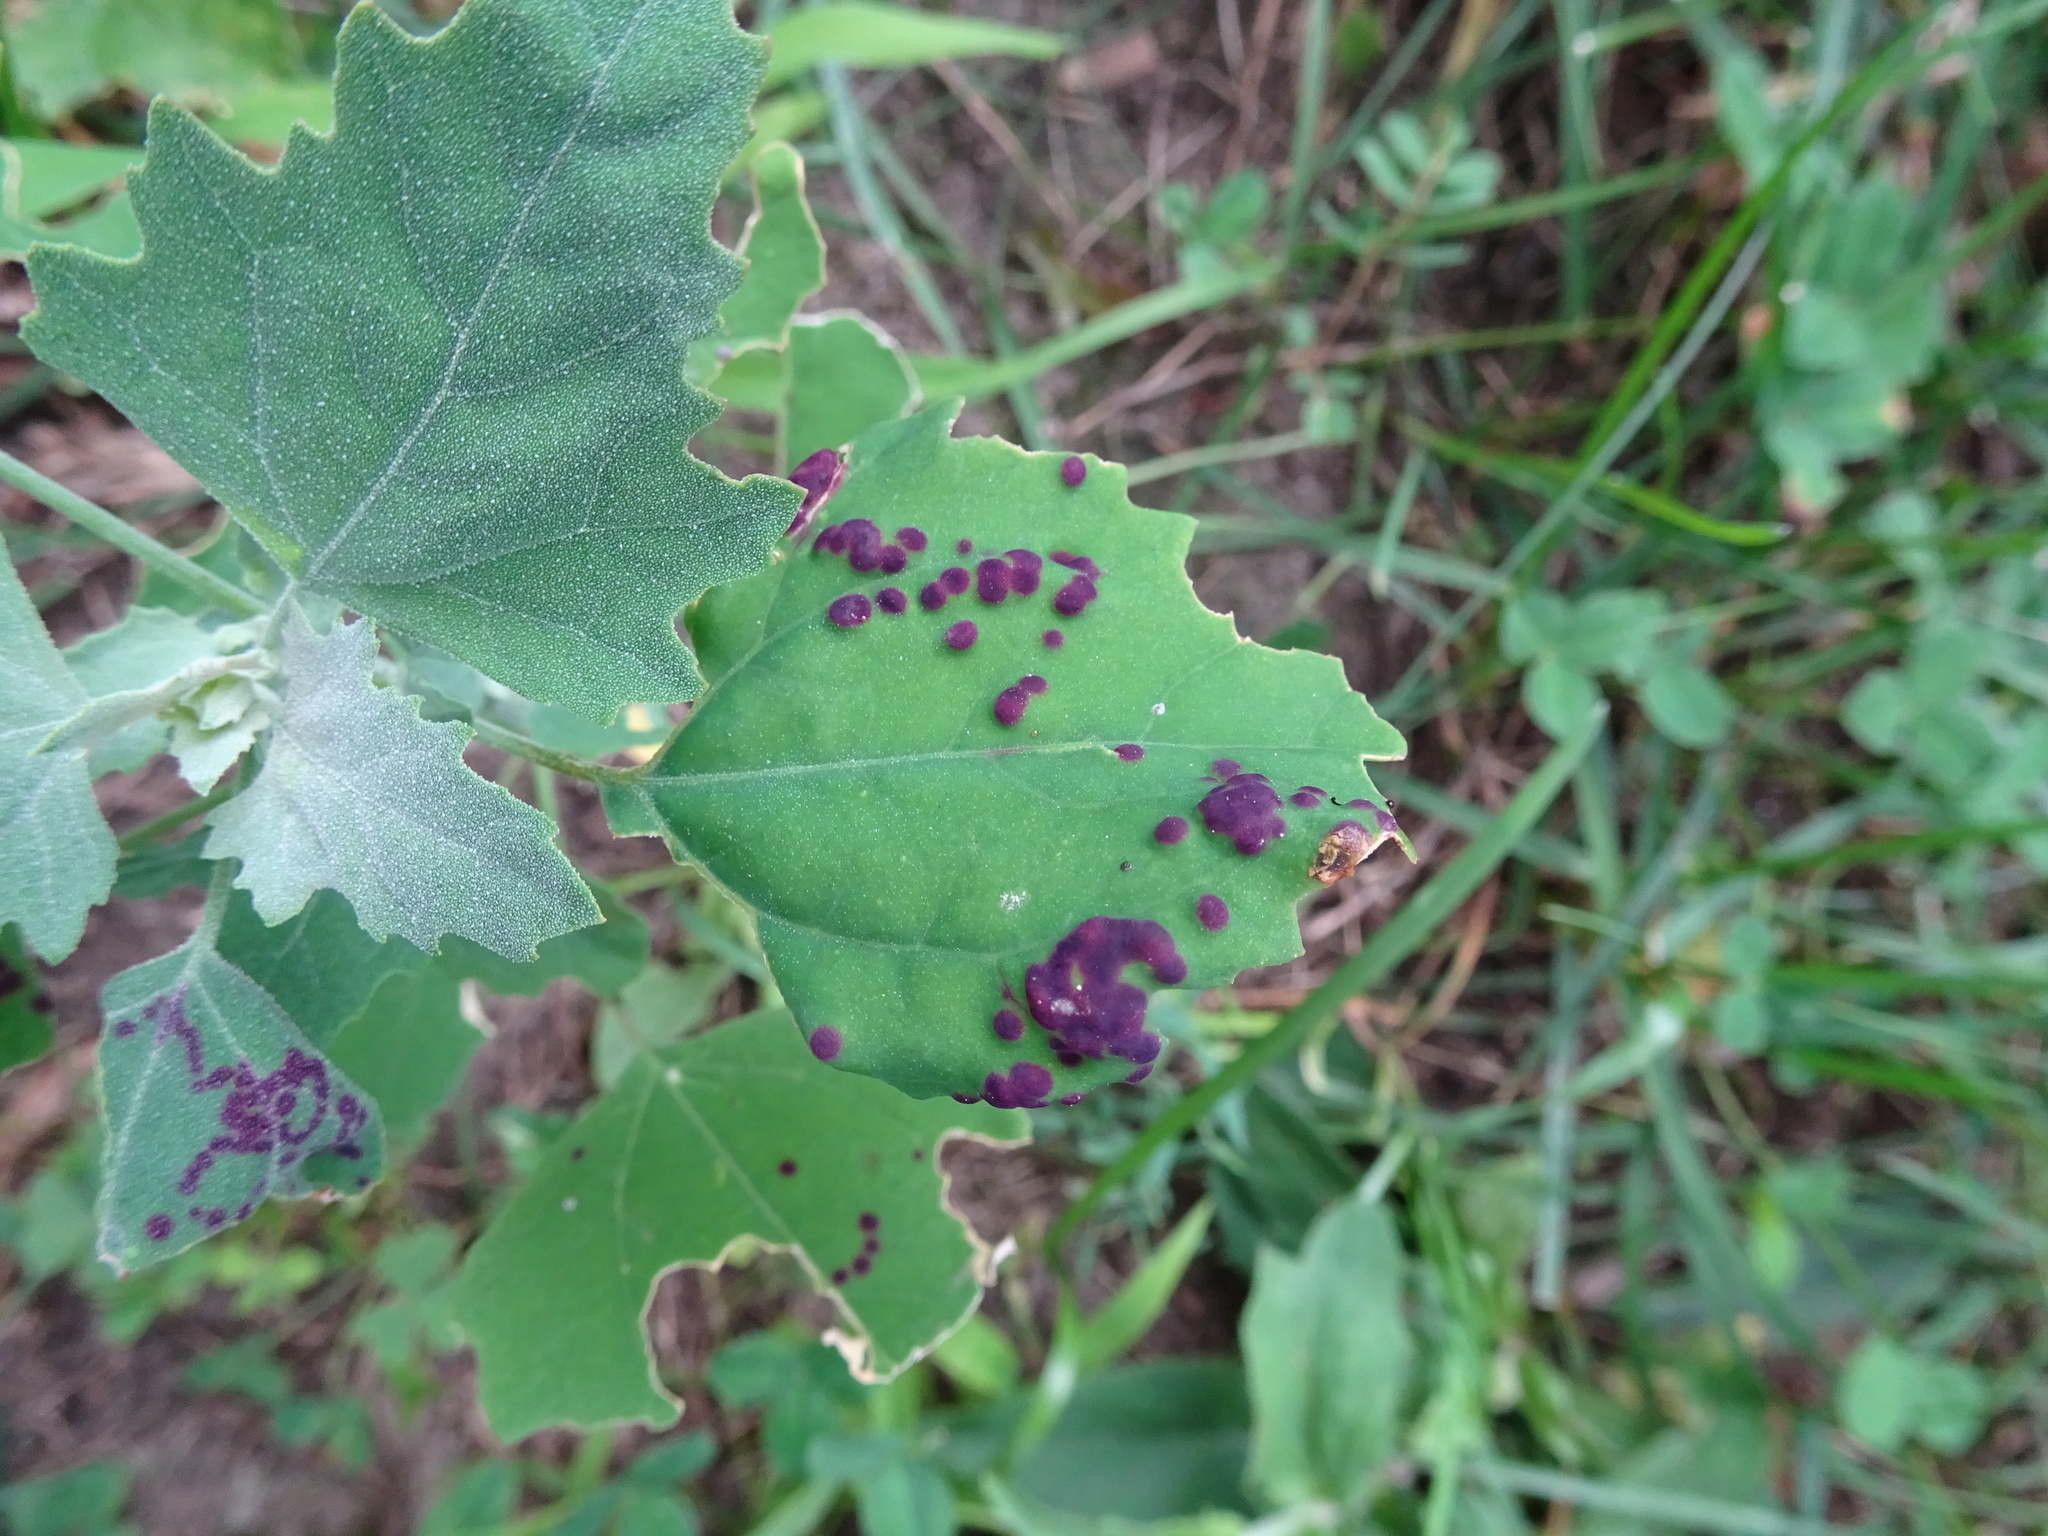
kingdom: Plantae
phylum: Tracheophyta
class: Magnoliopsida
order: Caryophyllales
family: Amaranthaceae
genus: Chenopodium
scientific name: Chenopodium album
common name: Fat-hen
